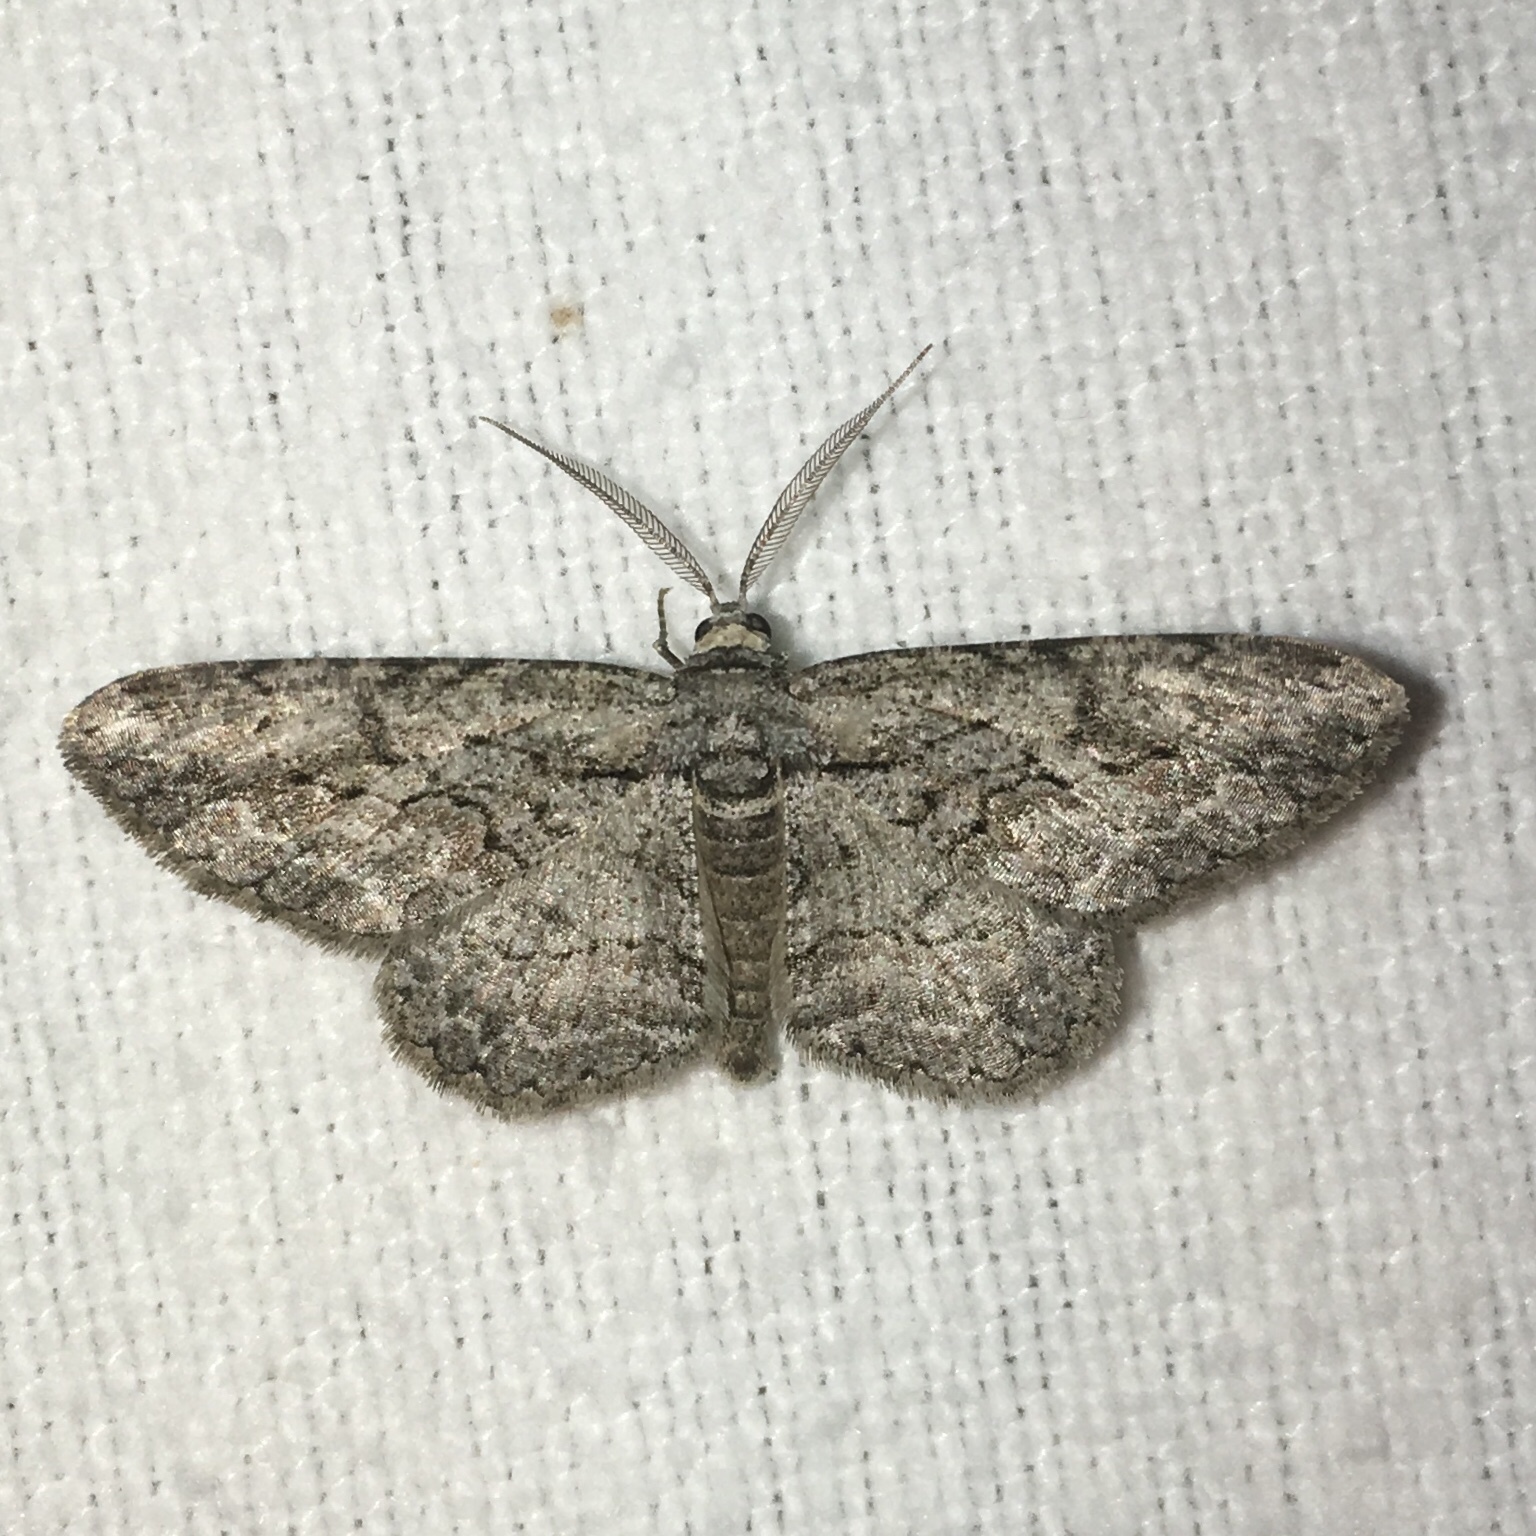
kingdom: Animalia
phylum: Arthropoda
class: Insecta
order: Lepidoptera
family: Geometridae
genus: Anavitrinella
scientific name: Anavitrinella pampinaria
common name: Common gray
